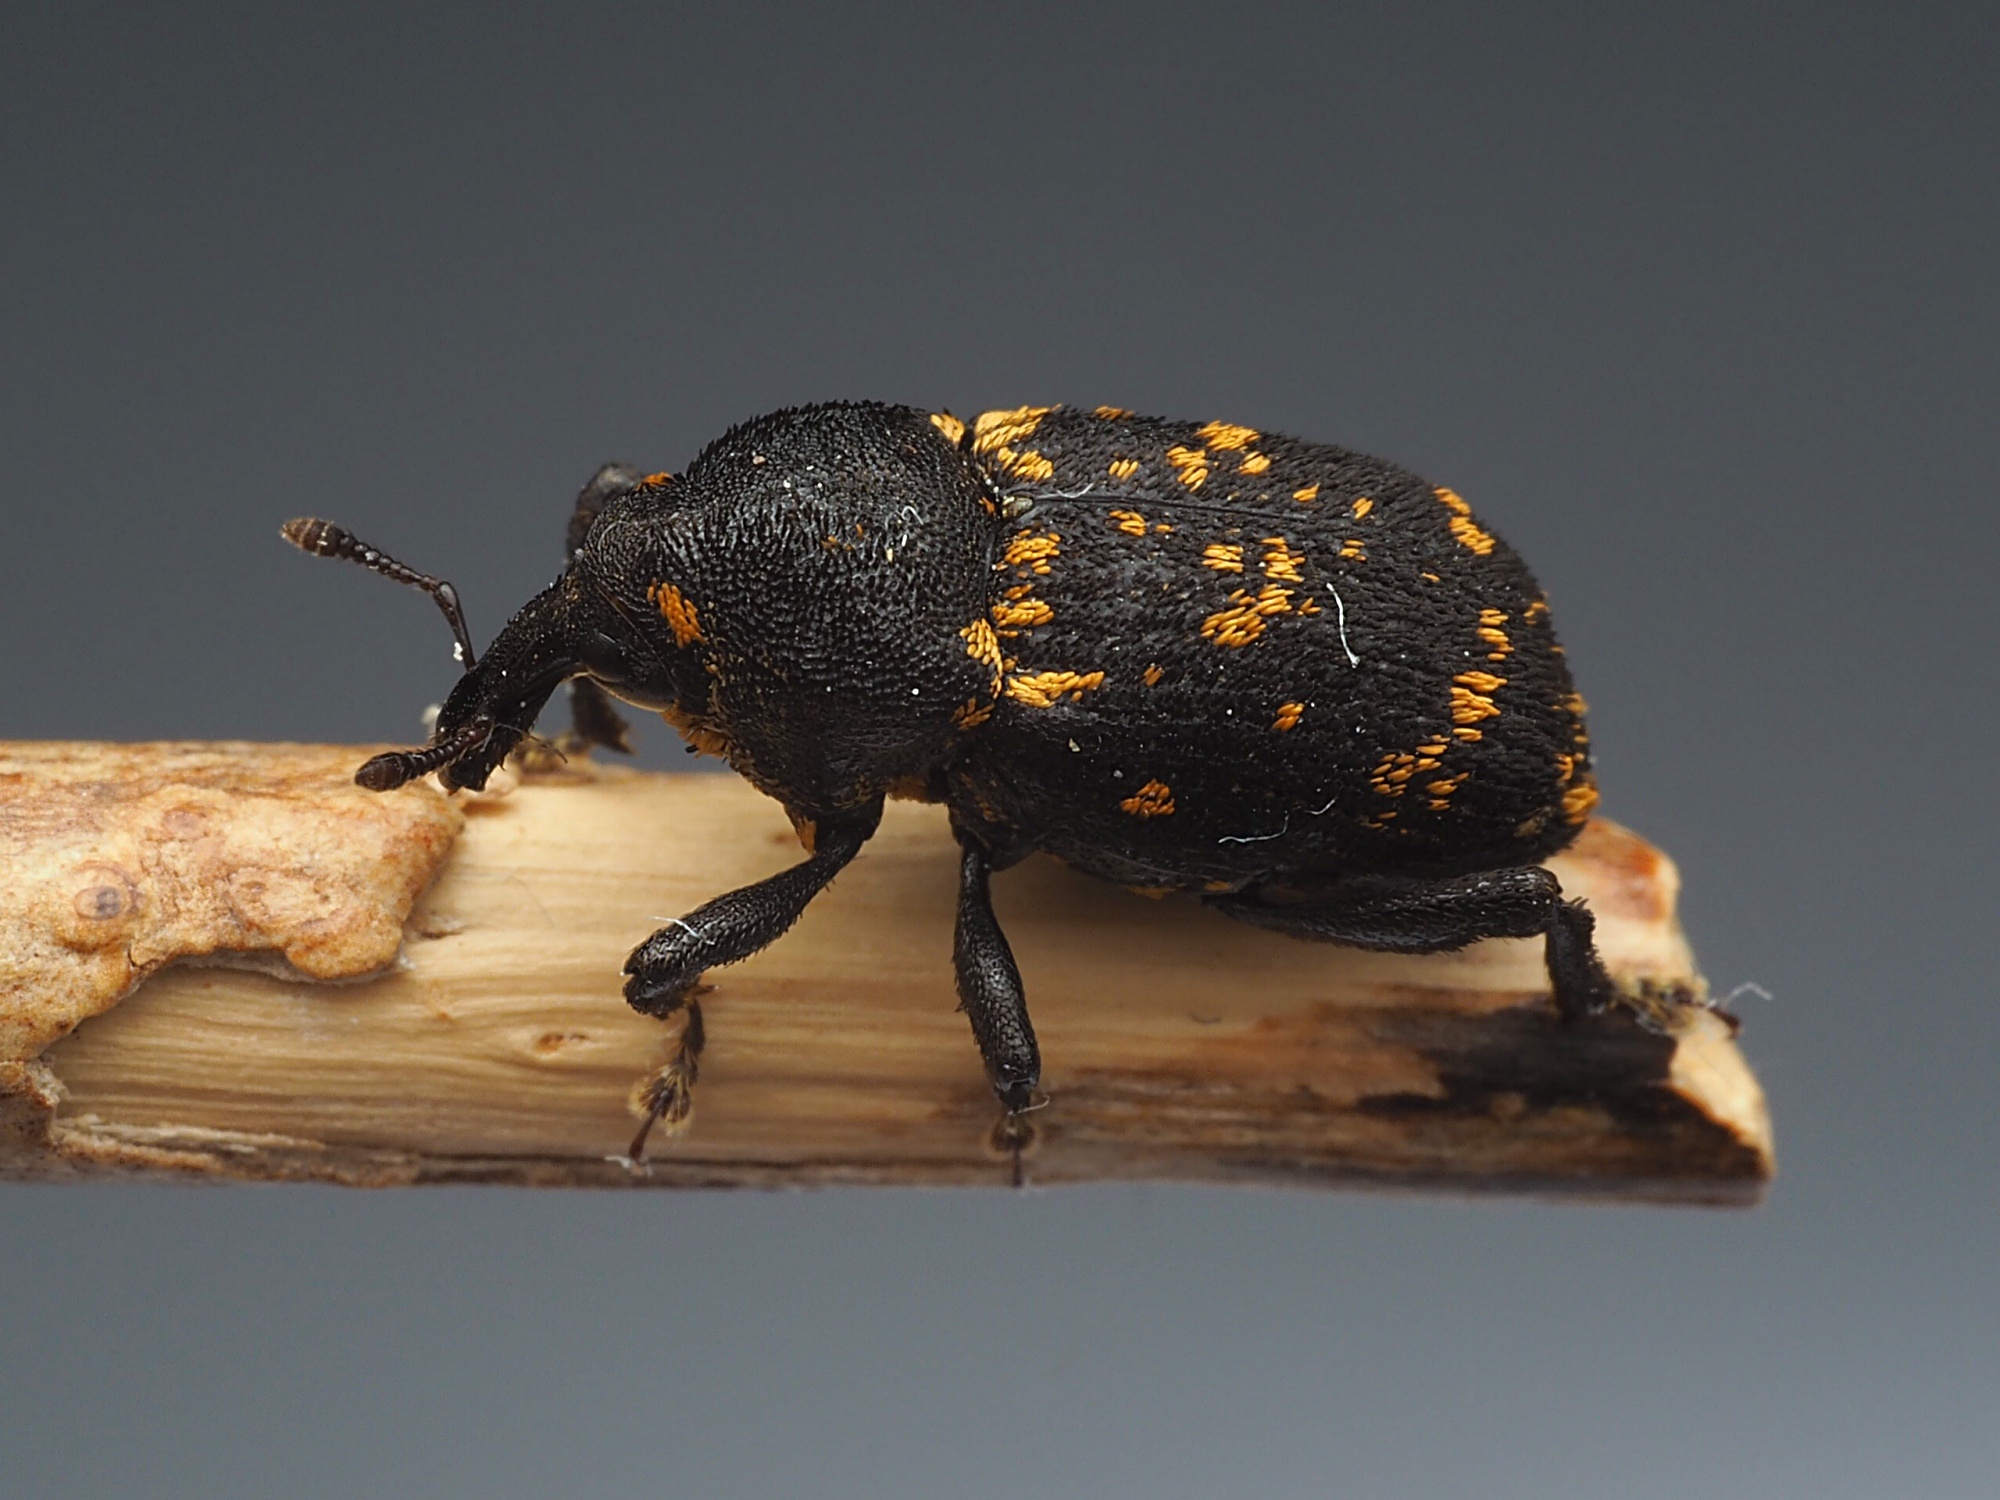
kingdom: Animalia
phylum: Arthropoda
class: Insecta
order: Coleoptera
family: Curculionidae
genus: Oreda
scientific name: Oreda notata
